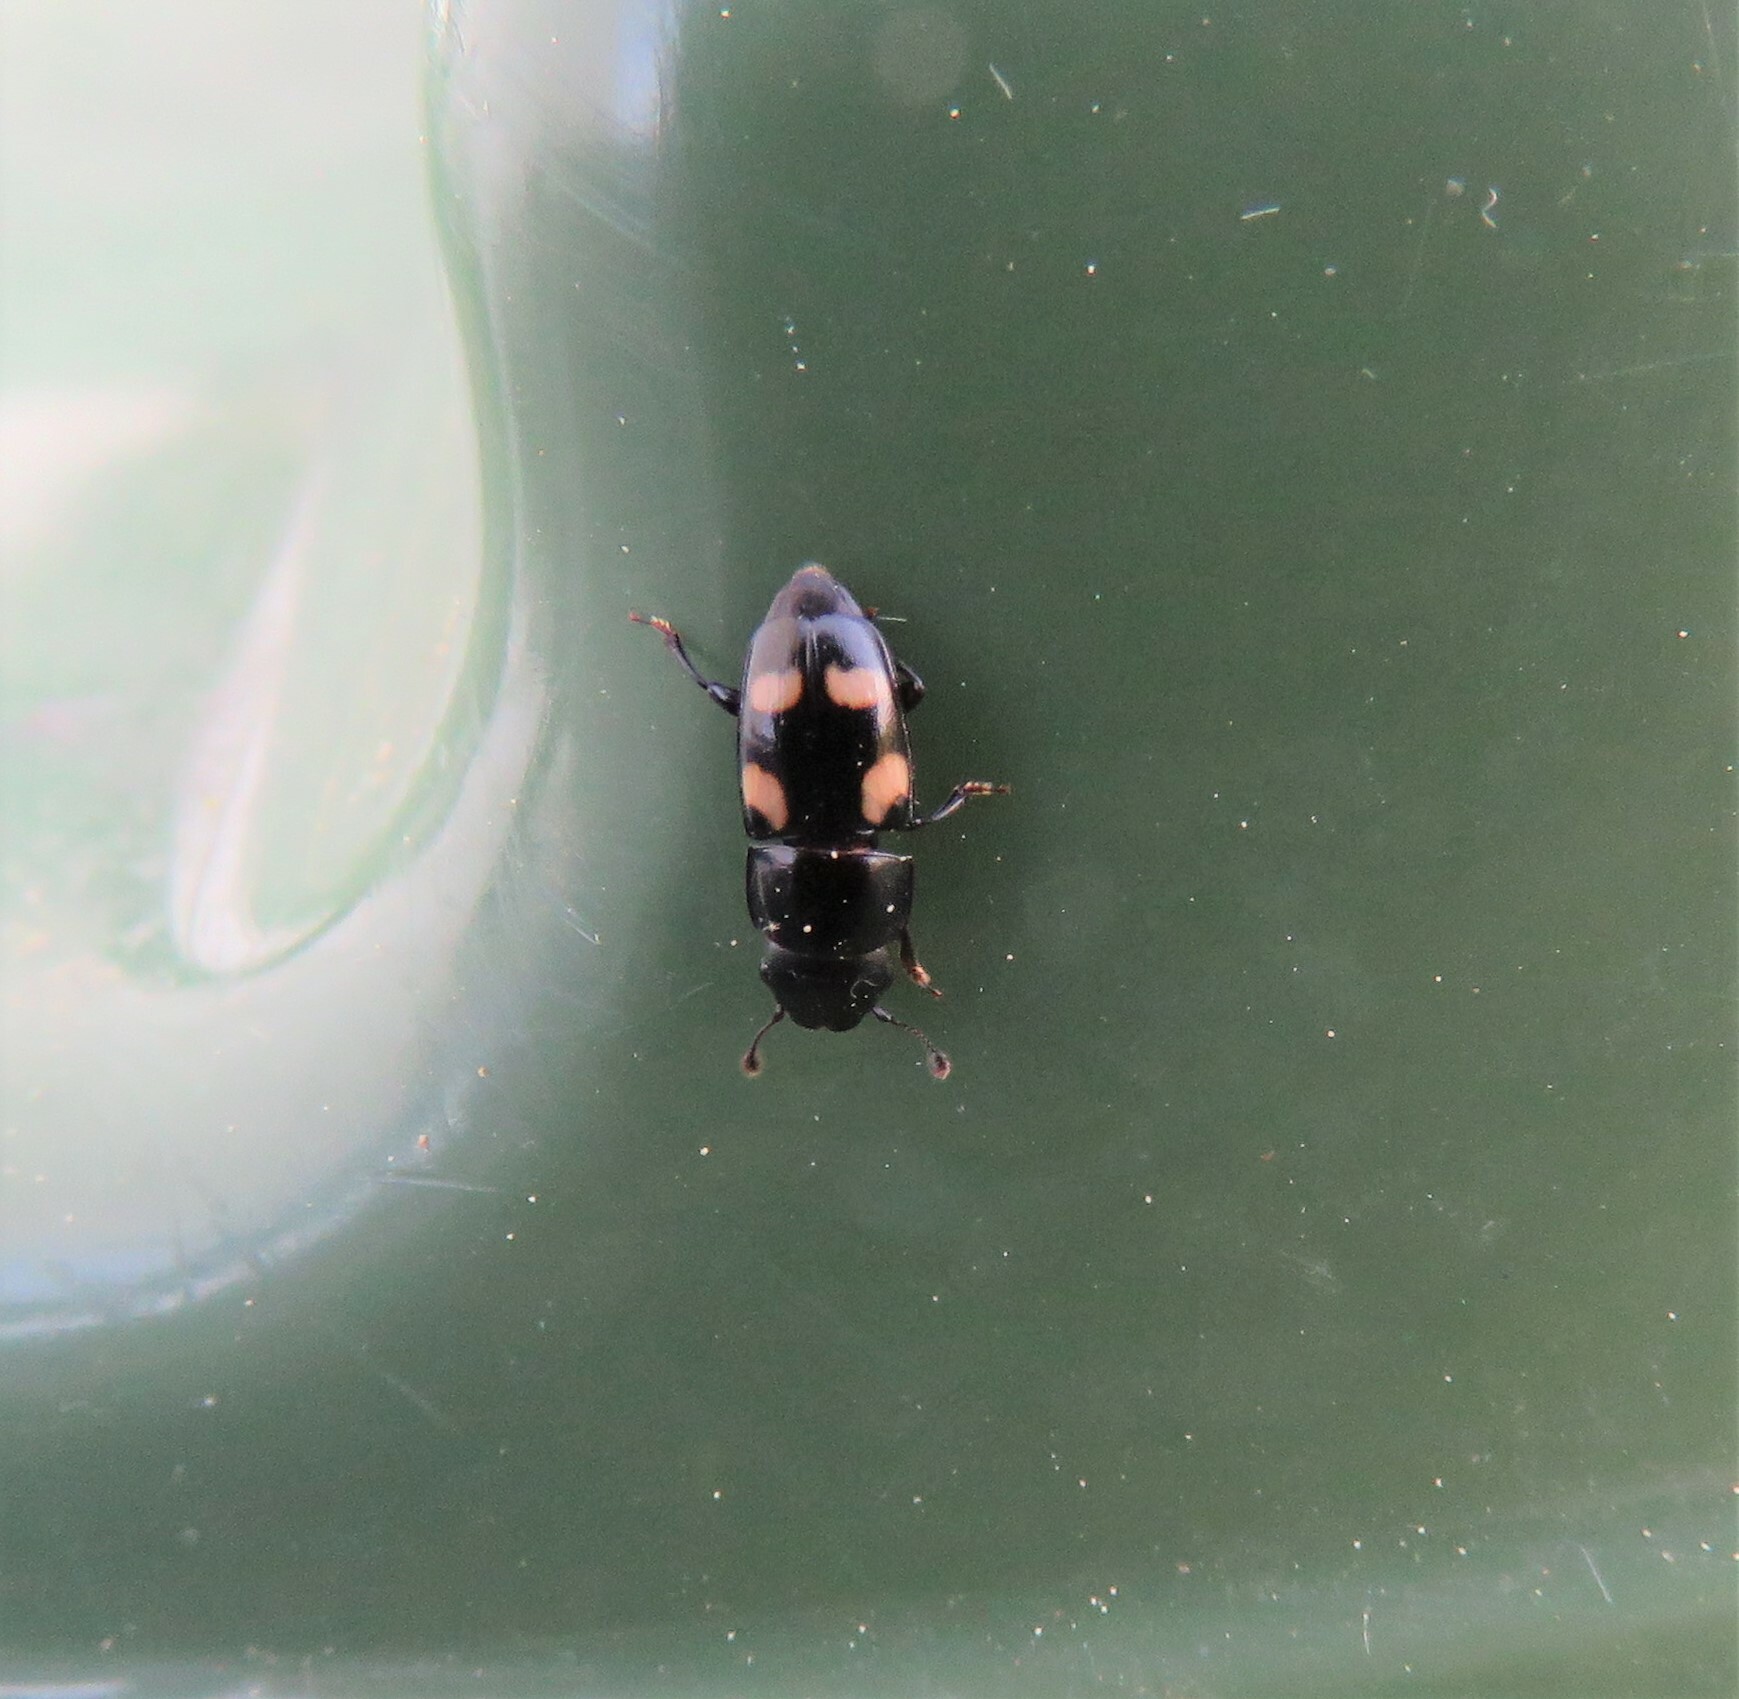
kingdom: Animalia
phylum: Arthropoda
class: Insecta
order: Coleoptera
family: Nitidulidae
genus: Glischrochilus
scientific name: Glischrochilus quadrisignatus
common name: Picnic beetle
